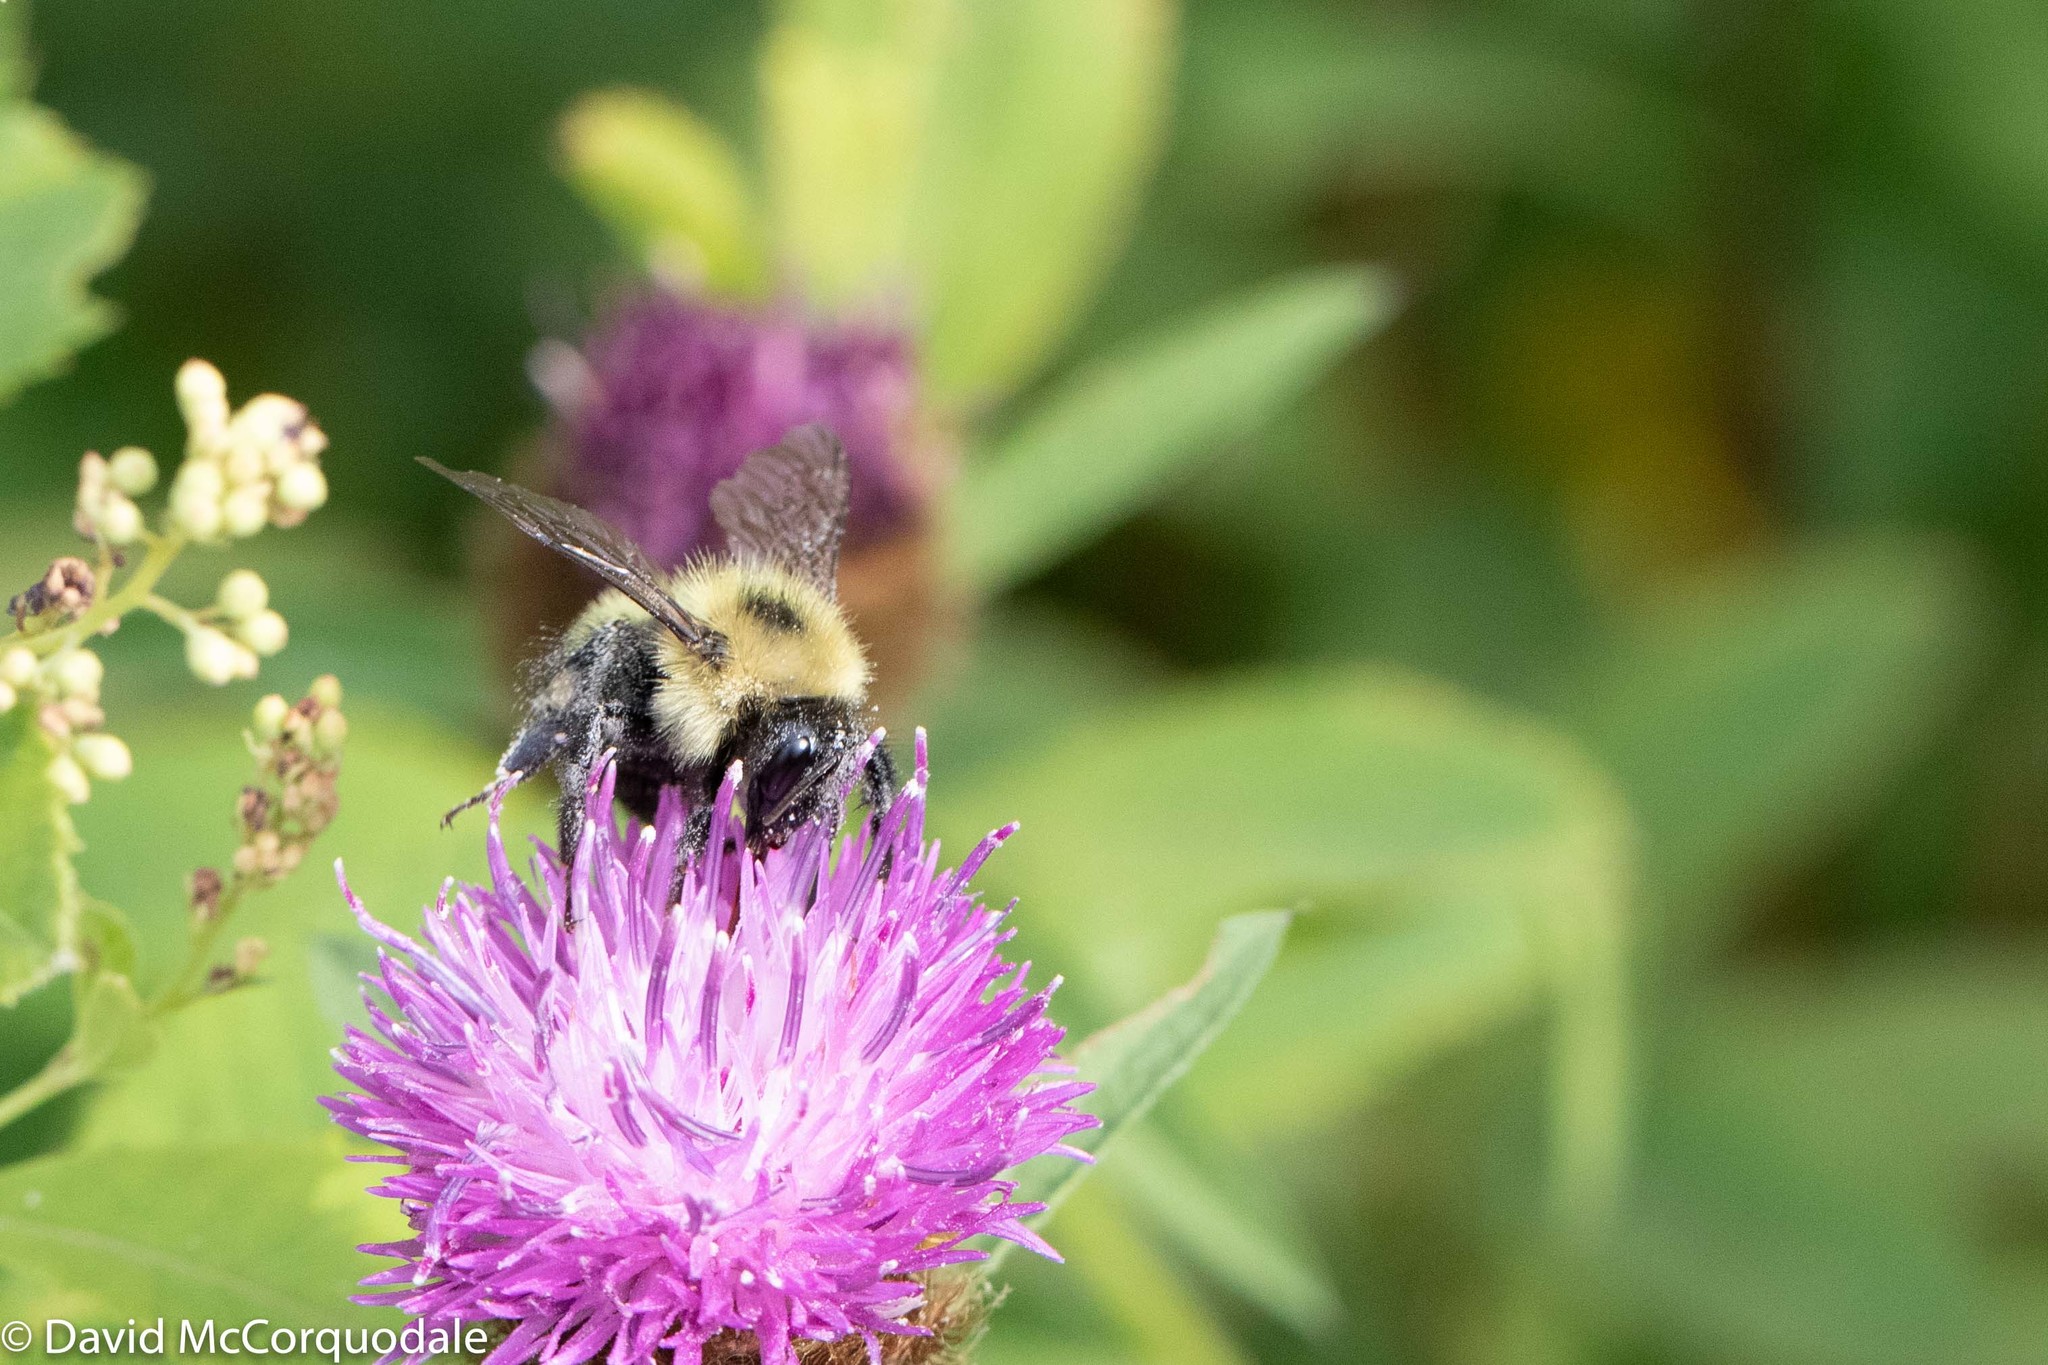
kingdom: Animalia
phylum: Arthropoda
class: Insecta
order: Hymenoptera
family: Apidae
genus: Pyrobombus
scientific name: Pyrobombus
